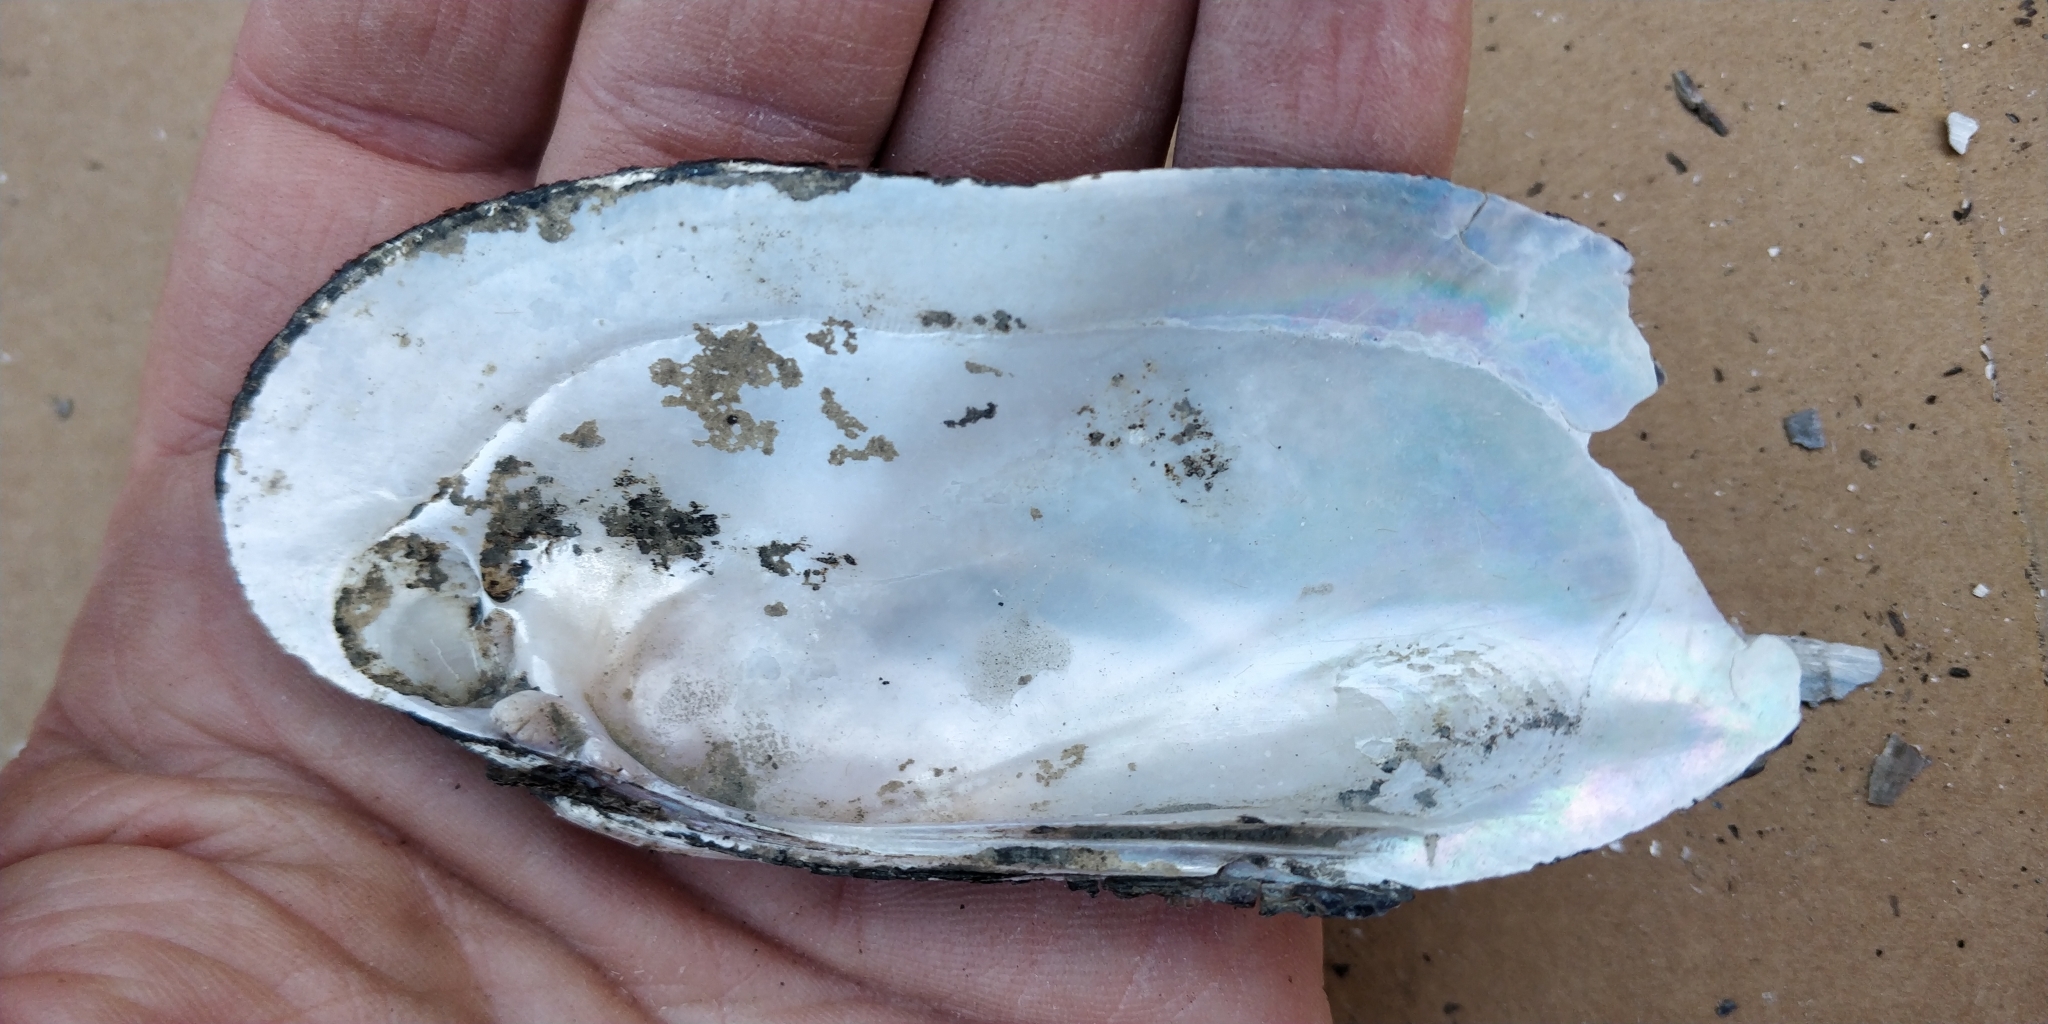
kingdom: Animalia
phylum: Mollusca
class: Bivalvia
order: Unionida
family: Unionidae
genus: Ligumia
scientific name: Ligumia recta
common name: Black sandshell
